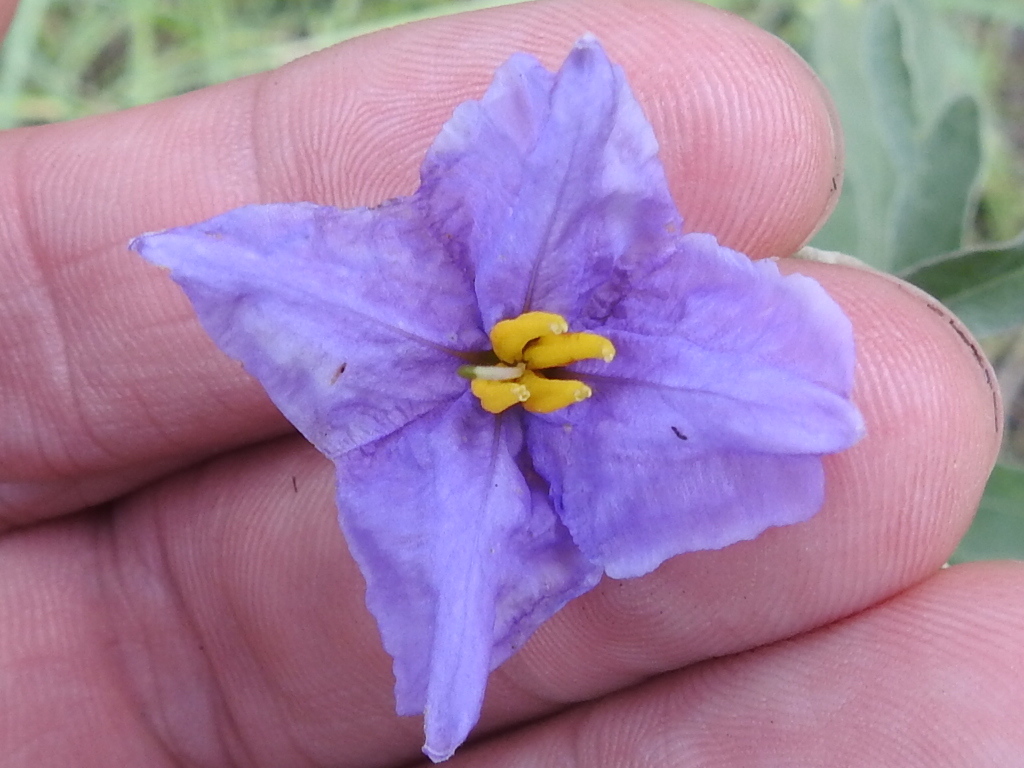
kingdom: Plantae
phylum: Tracheophyta
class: Magnoliopsida
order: Solanales
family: Solanaceae
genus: Solanum
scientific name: Solanum elaeagnifolium
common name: Silverleaf nightshade
